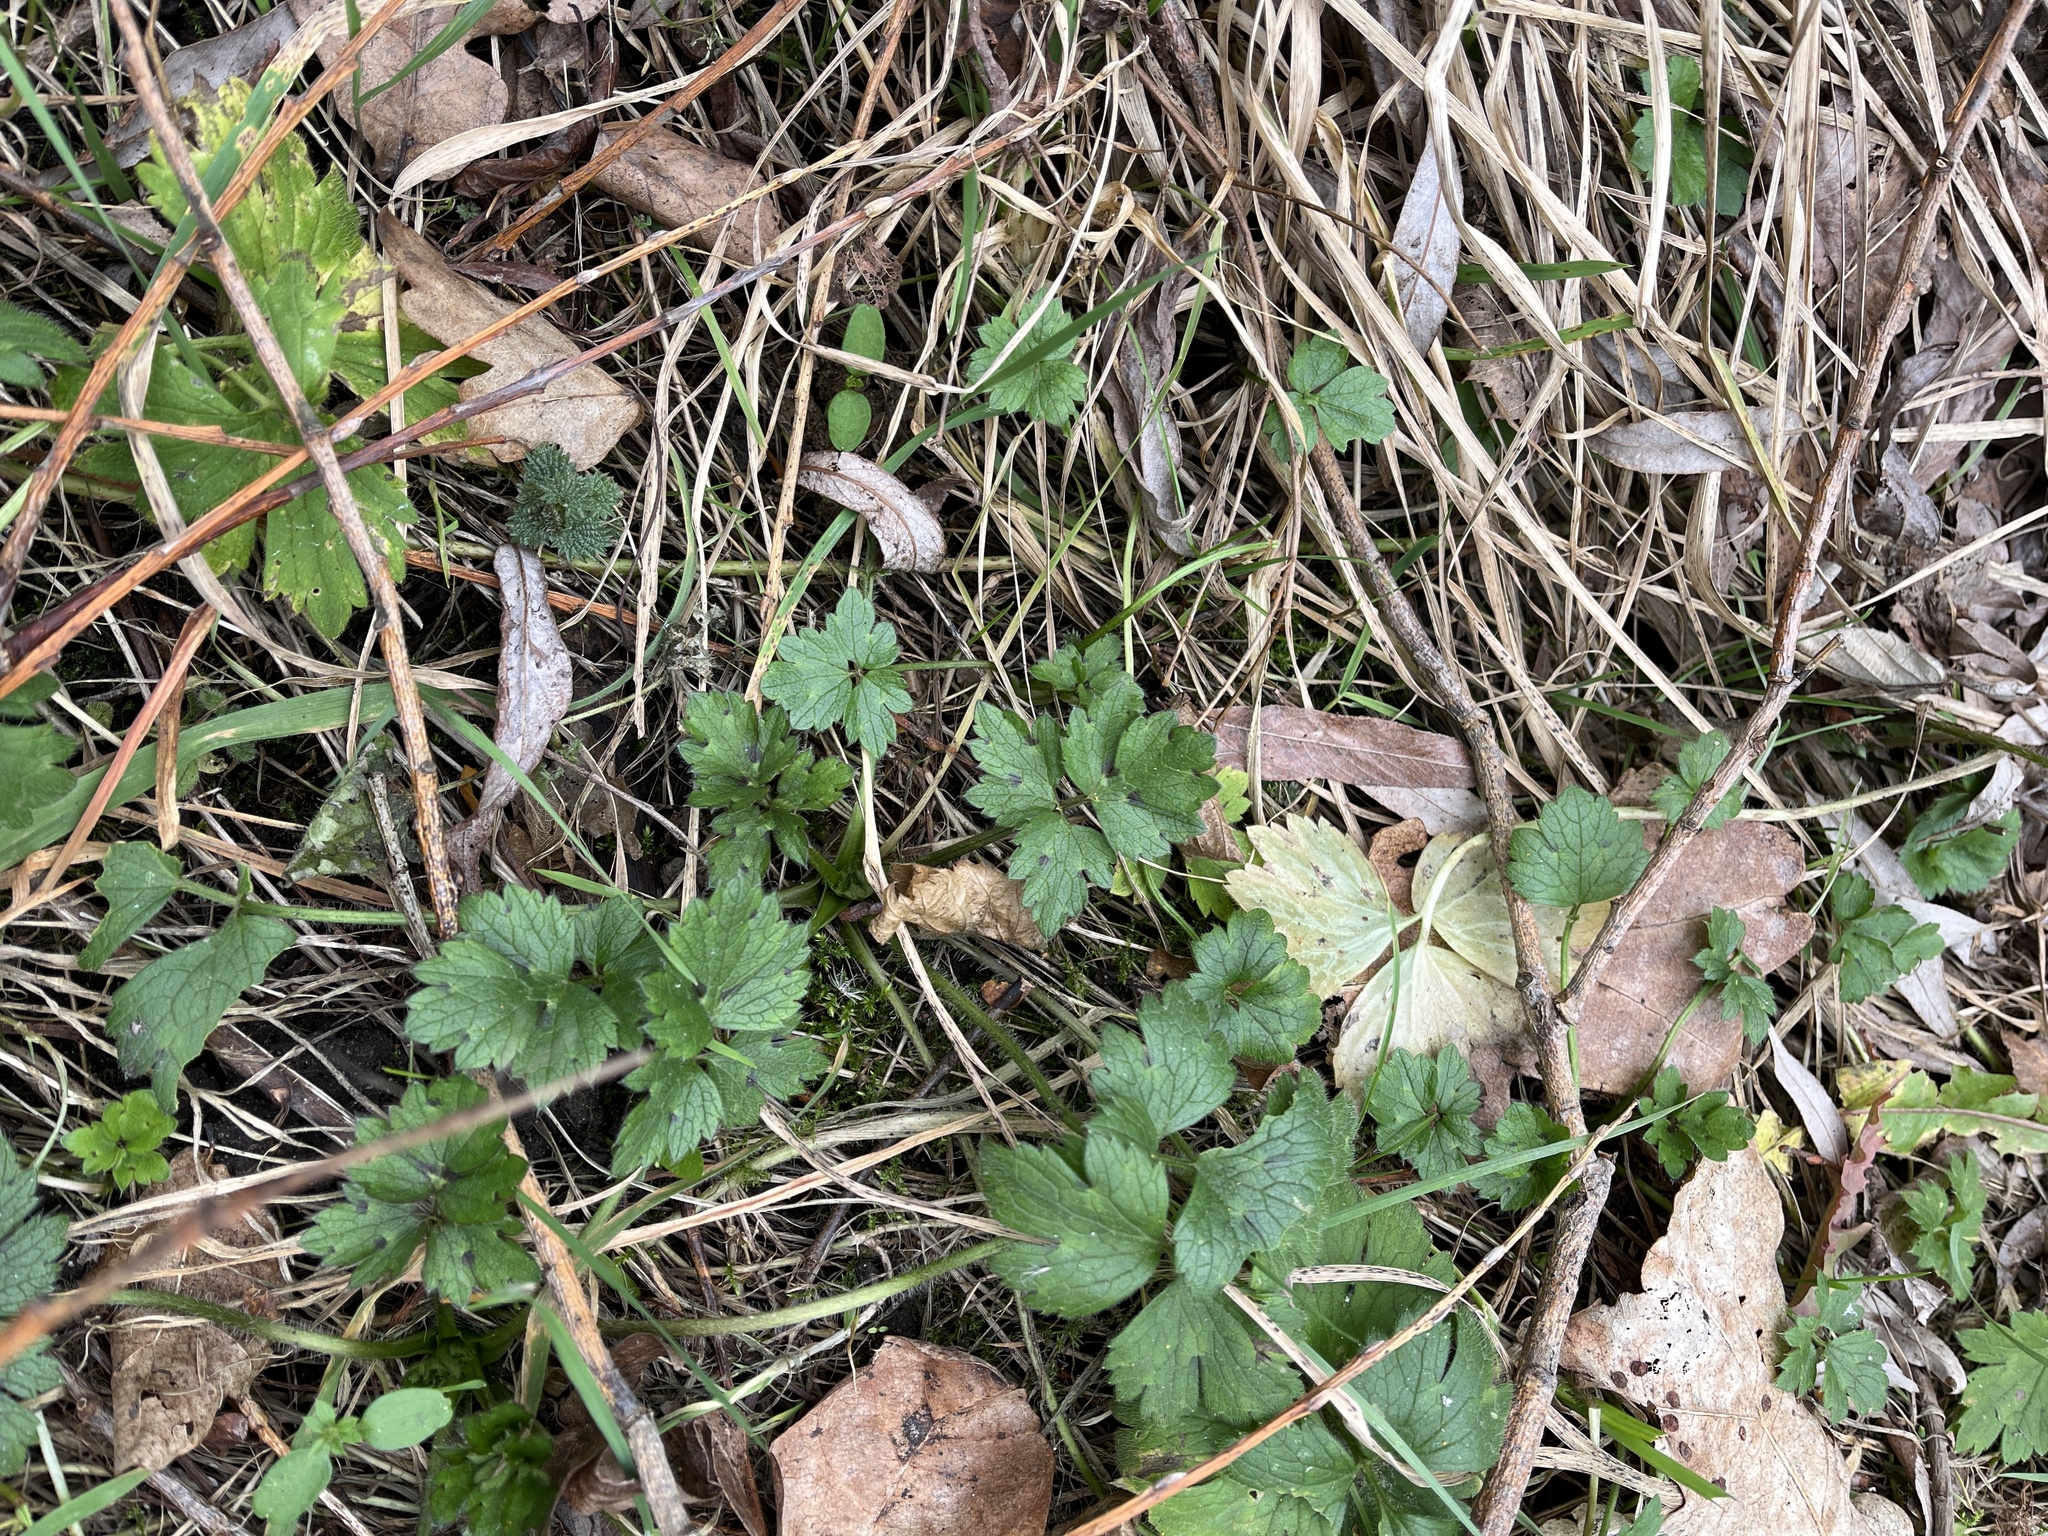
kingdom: Plantae
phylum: Tracheophyta
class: Magnoliopsida
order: Ranunculales
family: Ranunculaceae
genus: Ranunculus
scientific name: Ranunculus repens
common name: Creeping buttercup
